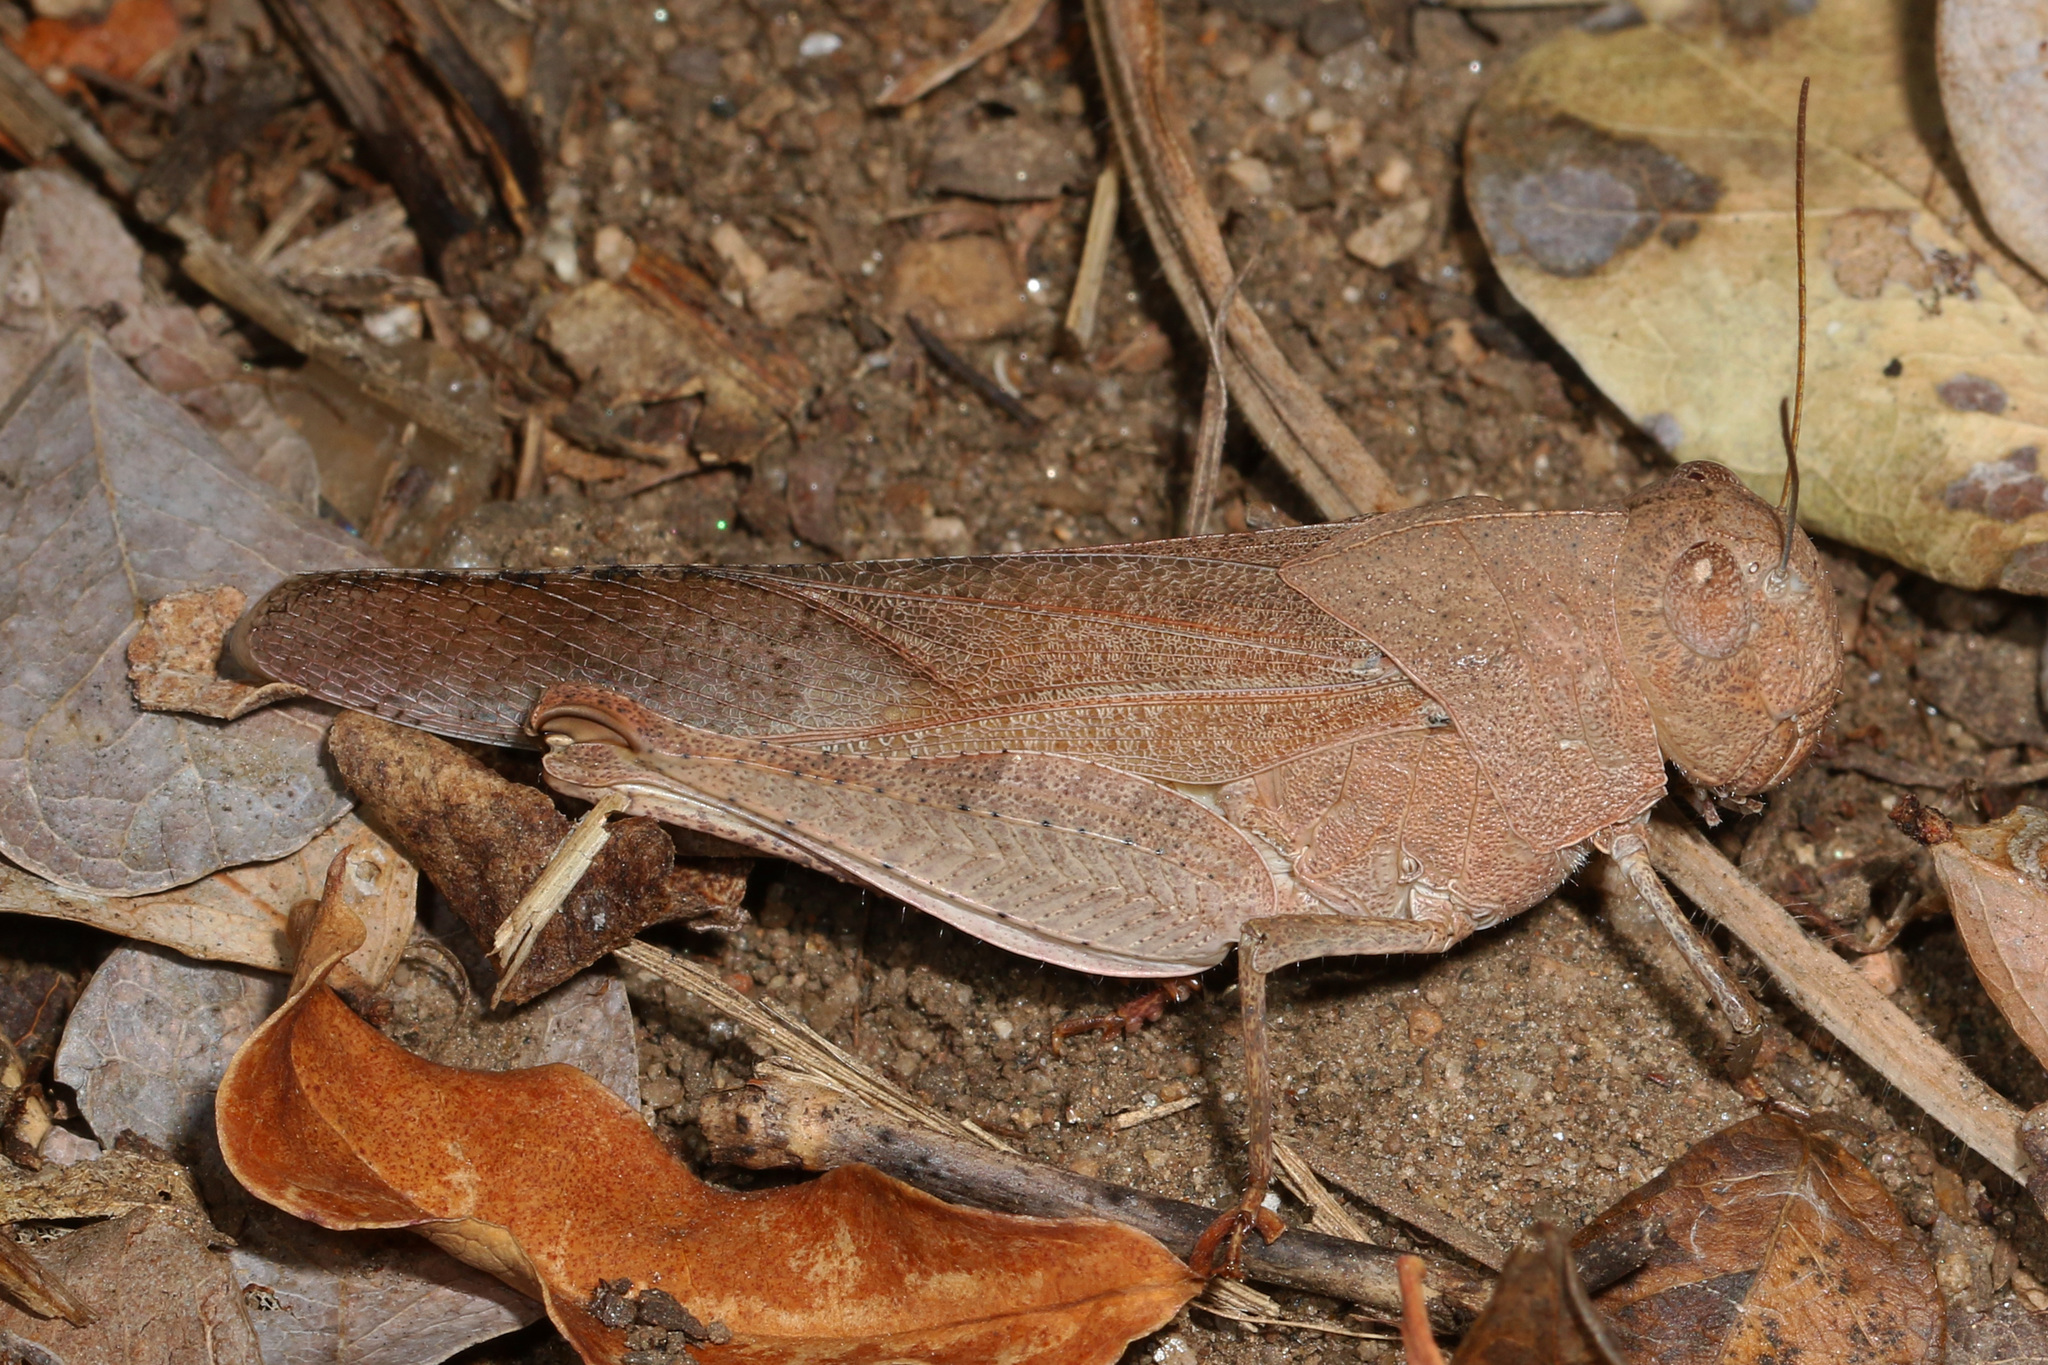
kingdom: Animalia
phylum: Arthropoda
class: Insecta
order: Orthoptera
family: Acrididae
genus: Humbe
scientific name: Humbe tenuicornis
